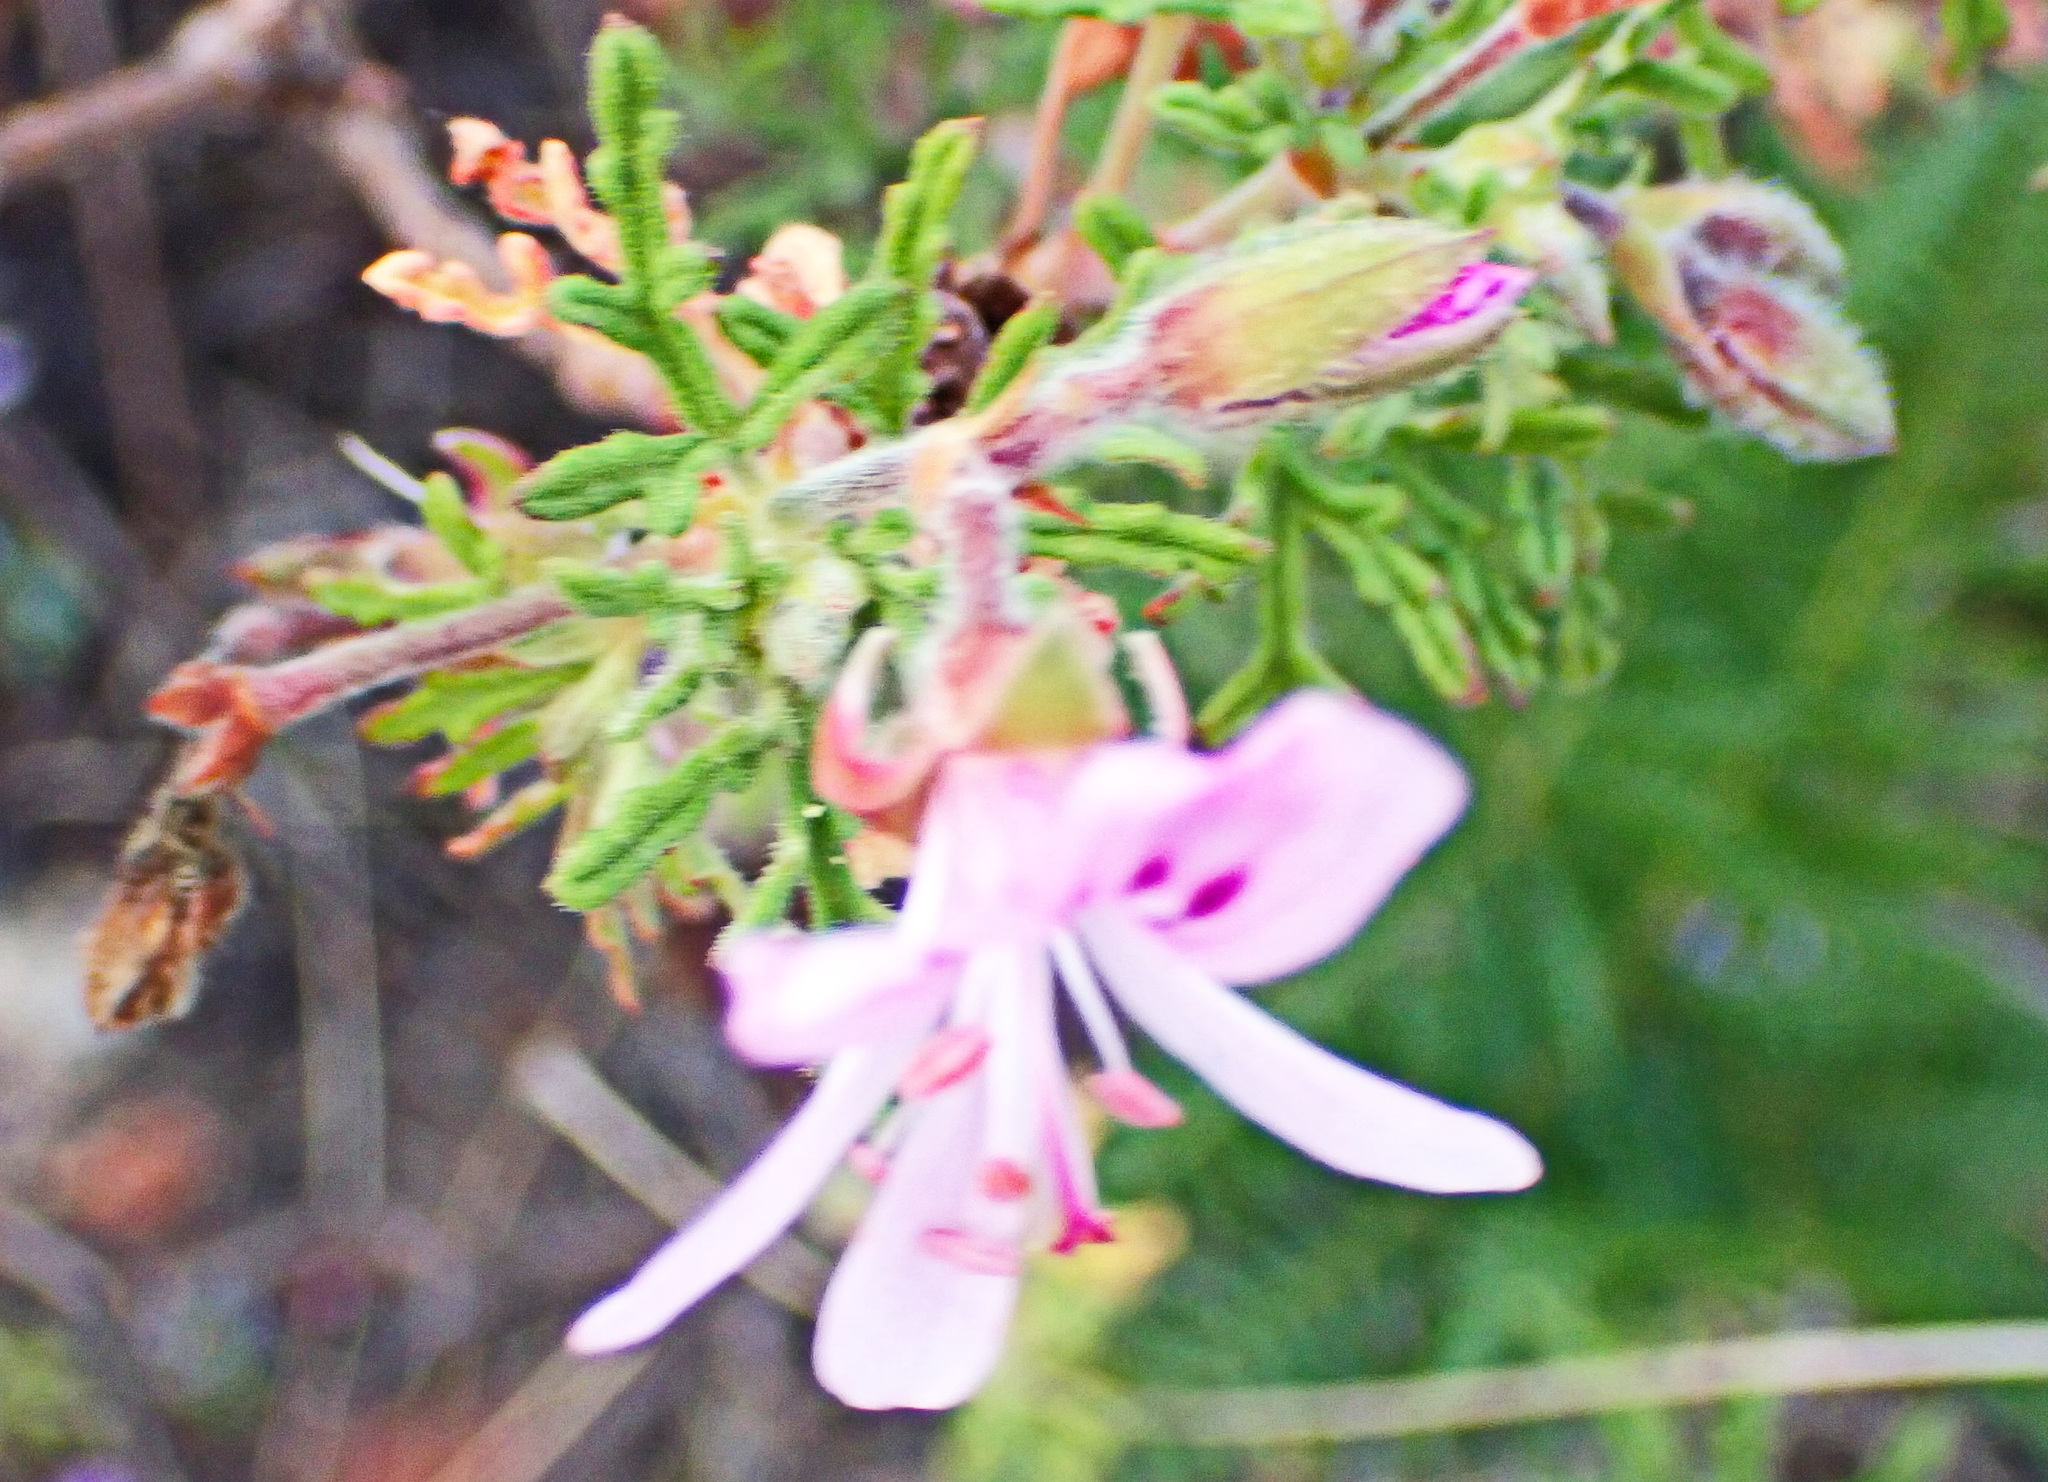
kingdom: Plantae
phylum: Tracheophyta
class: Magnoliopsida
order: Geraniales
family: Geraniaceae
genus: Pelargonium
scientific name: Pelargonium radens
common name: Rasp-leaf pelargonium
